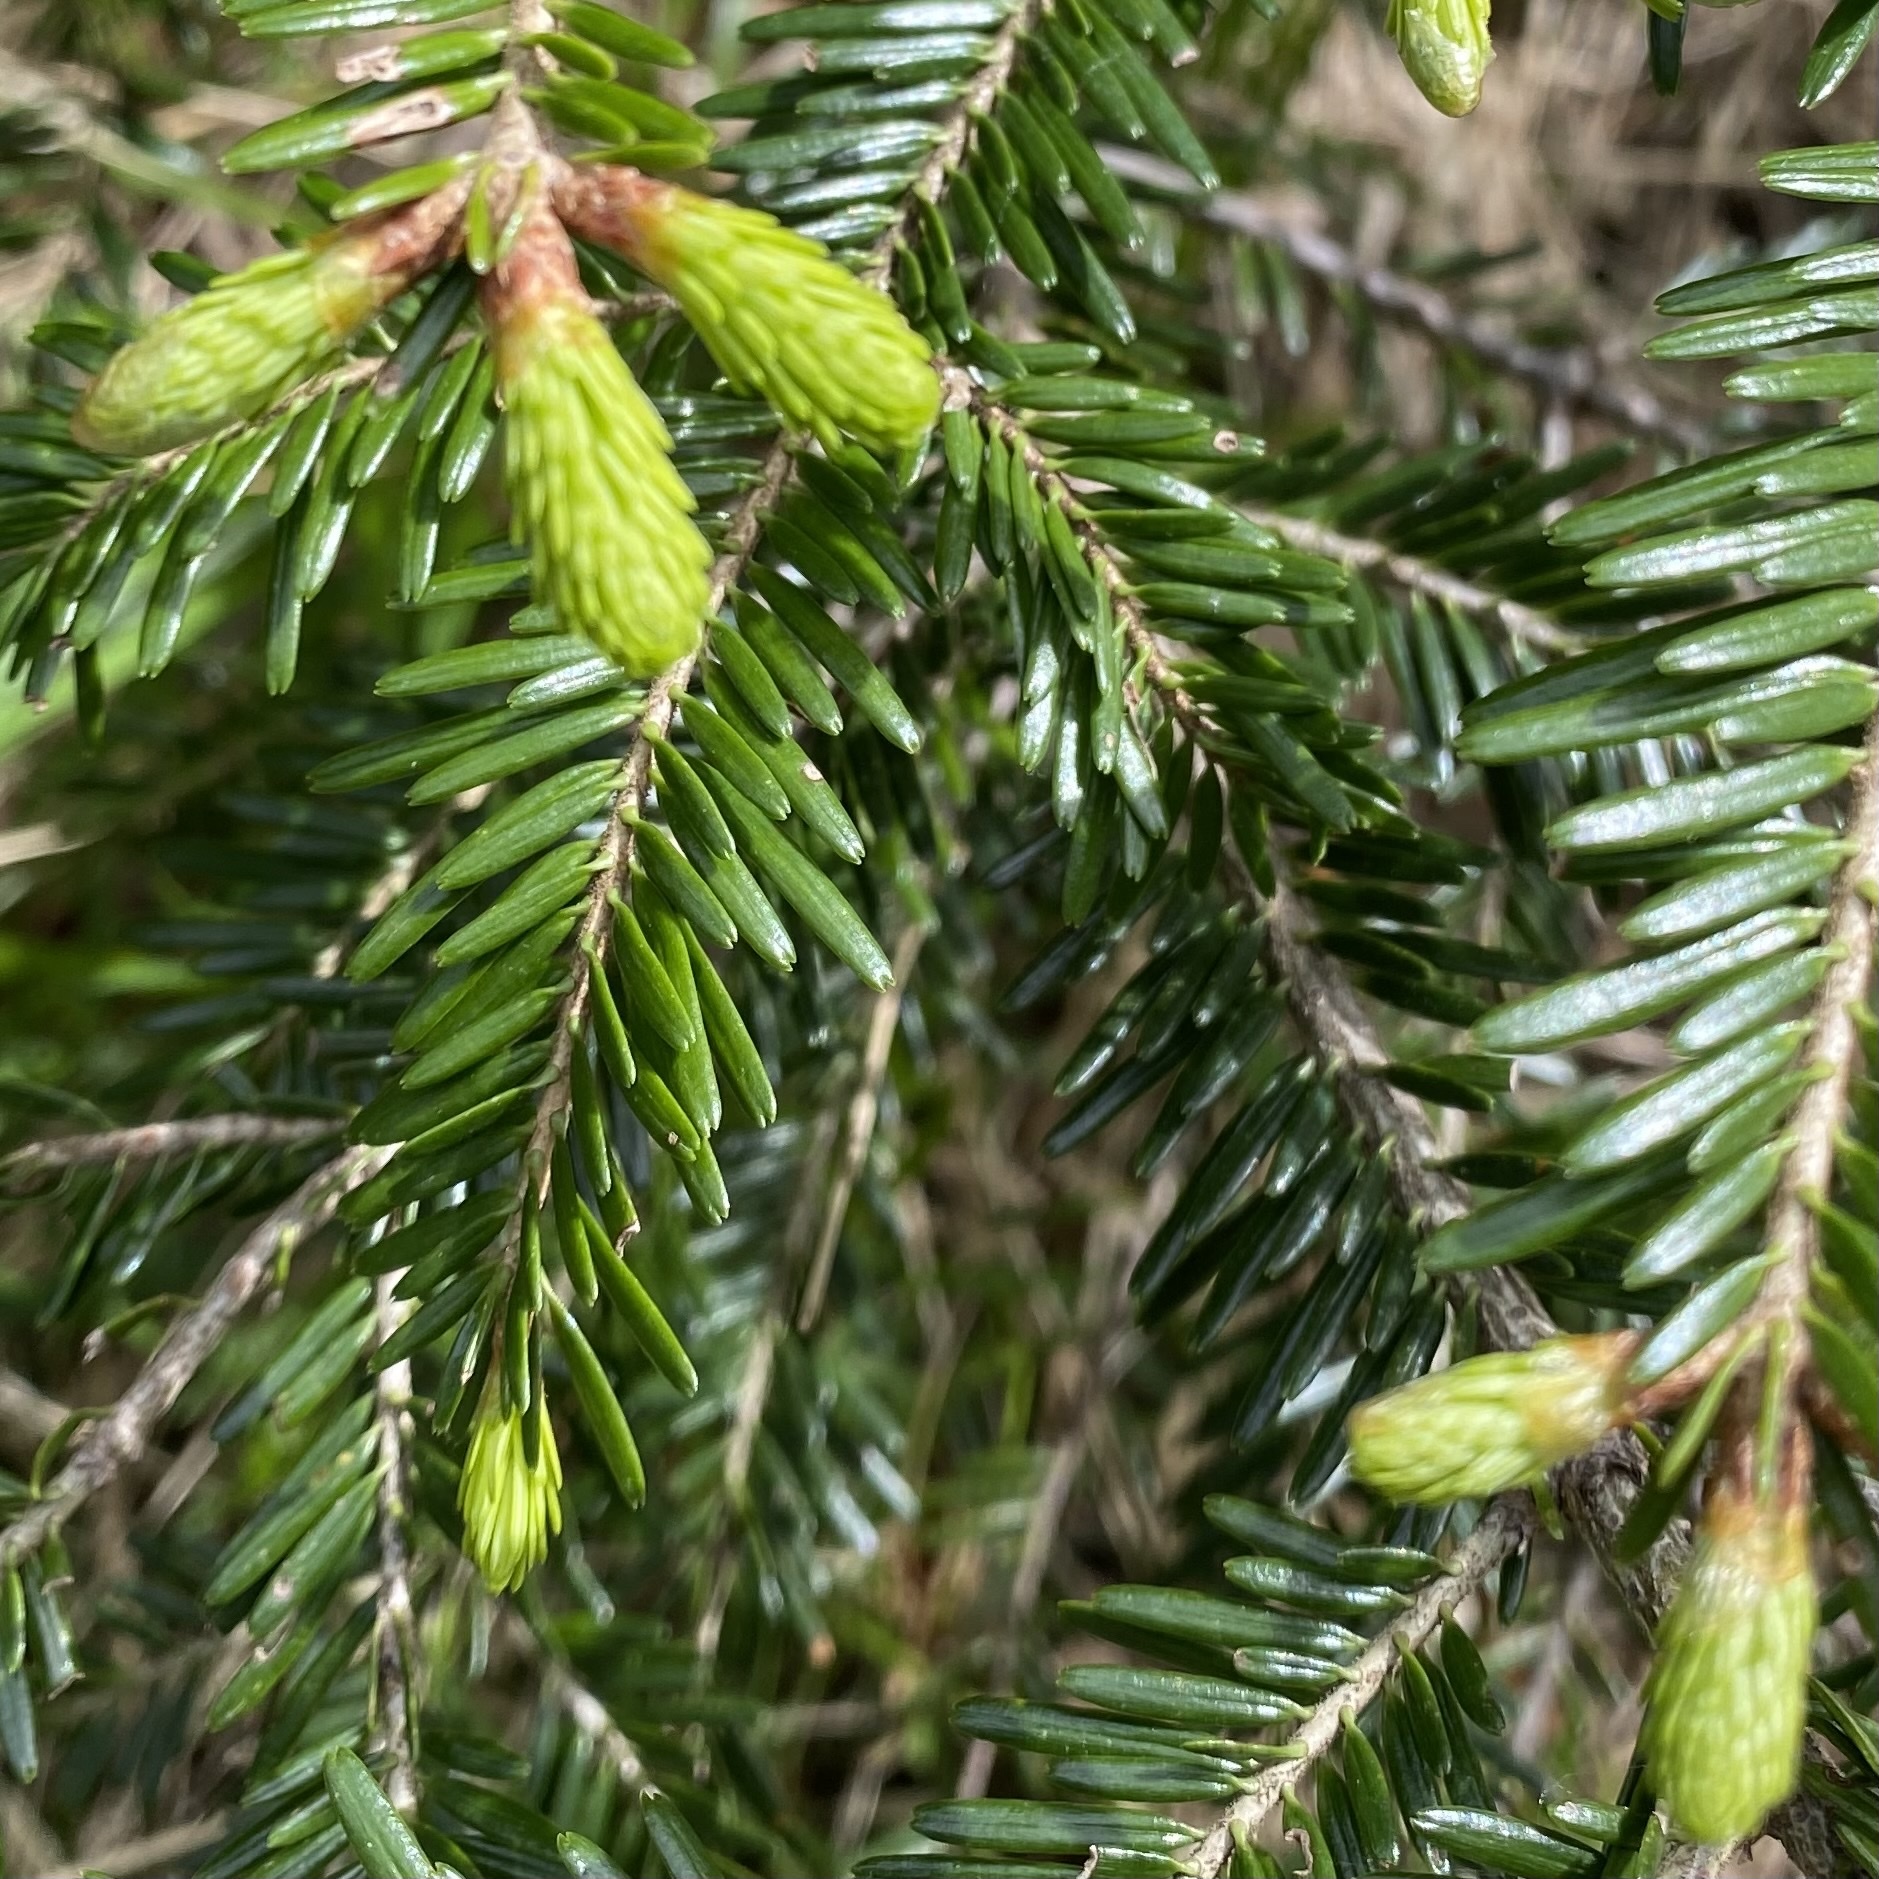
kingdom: Plantae
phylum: Tracheophyta
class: Pinopsida
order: Pinales
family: Pinaceae
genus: Abies
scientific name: Abies alba
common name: Silver fir
